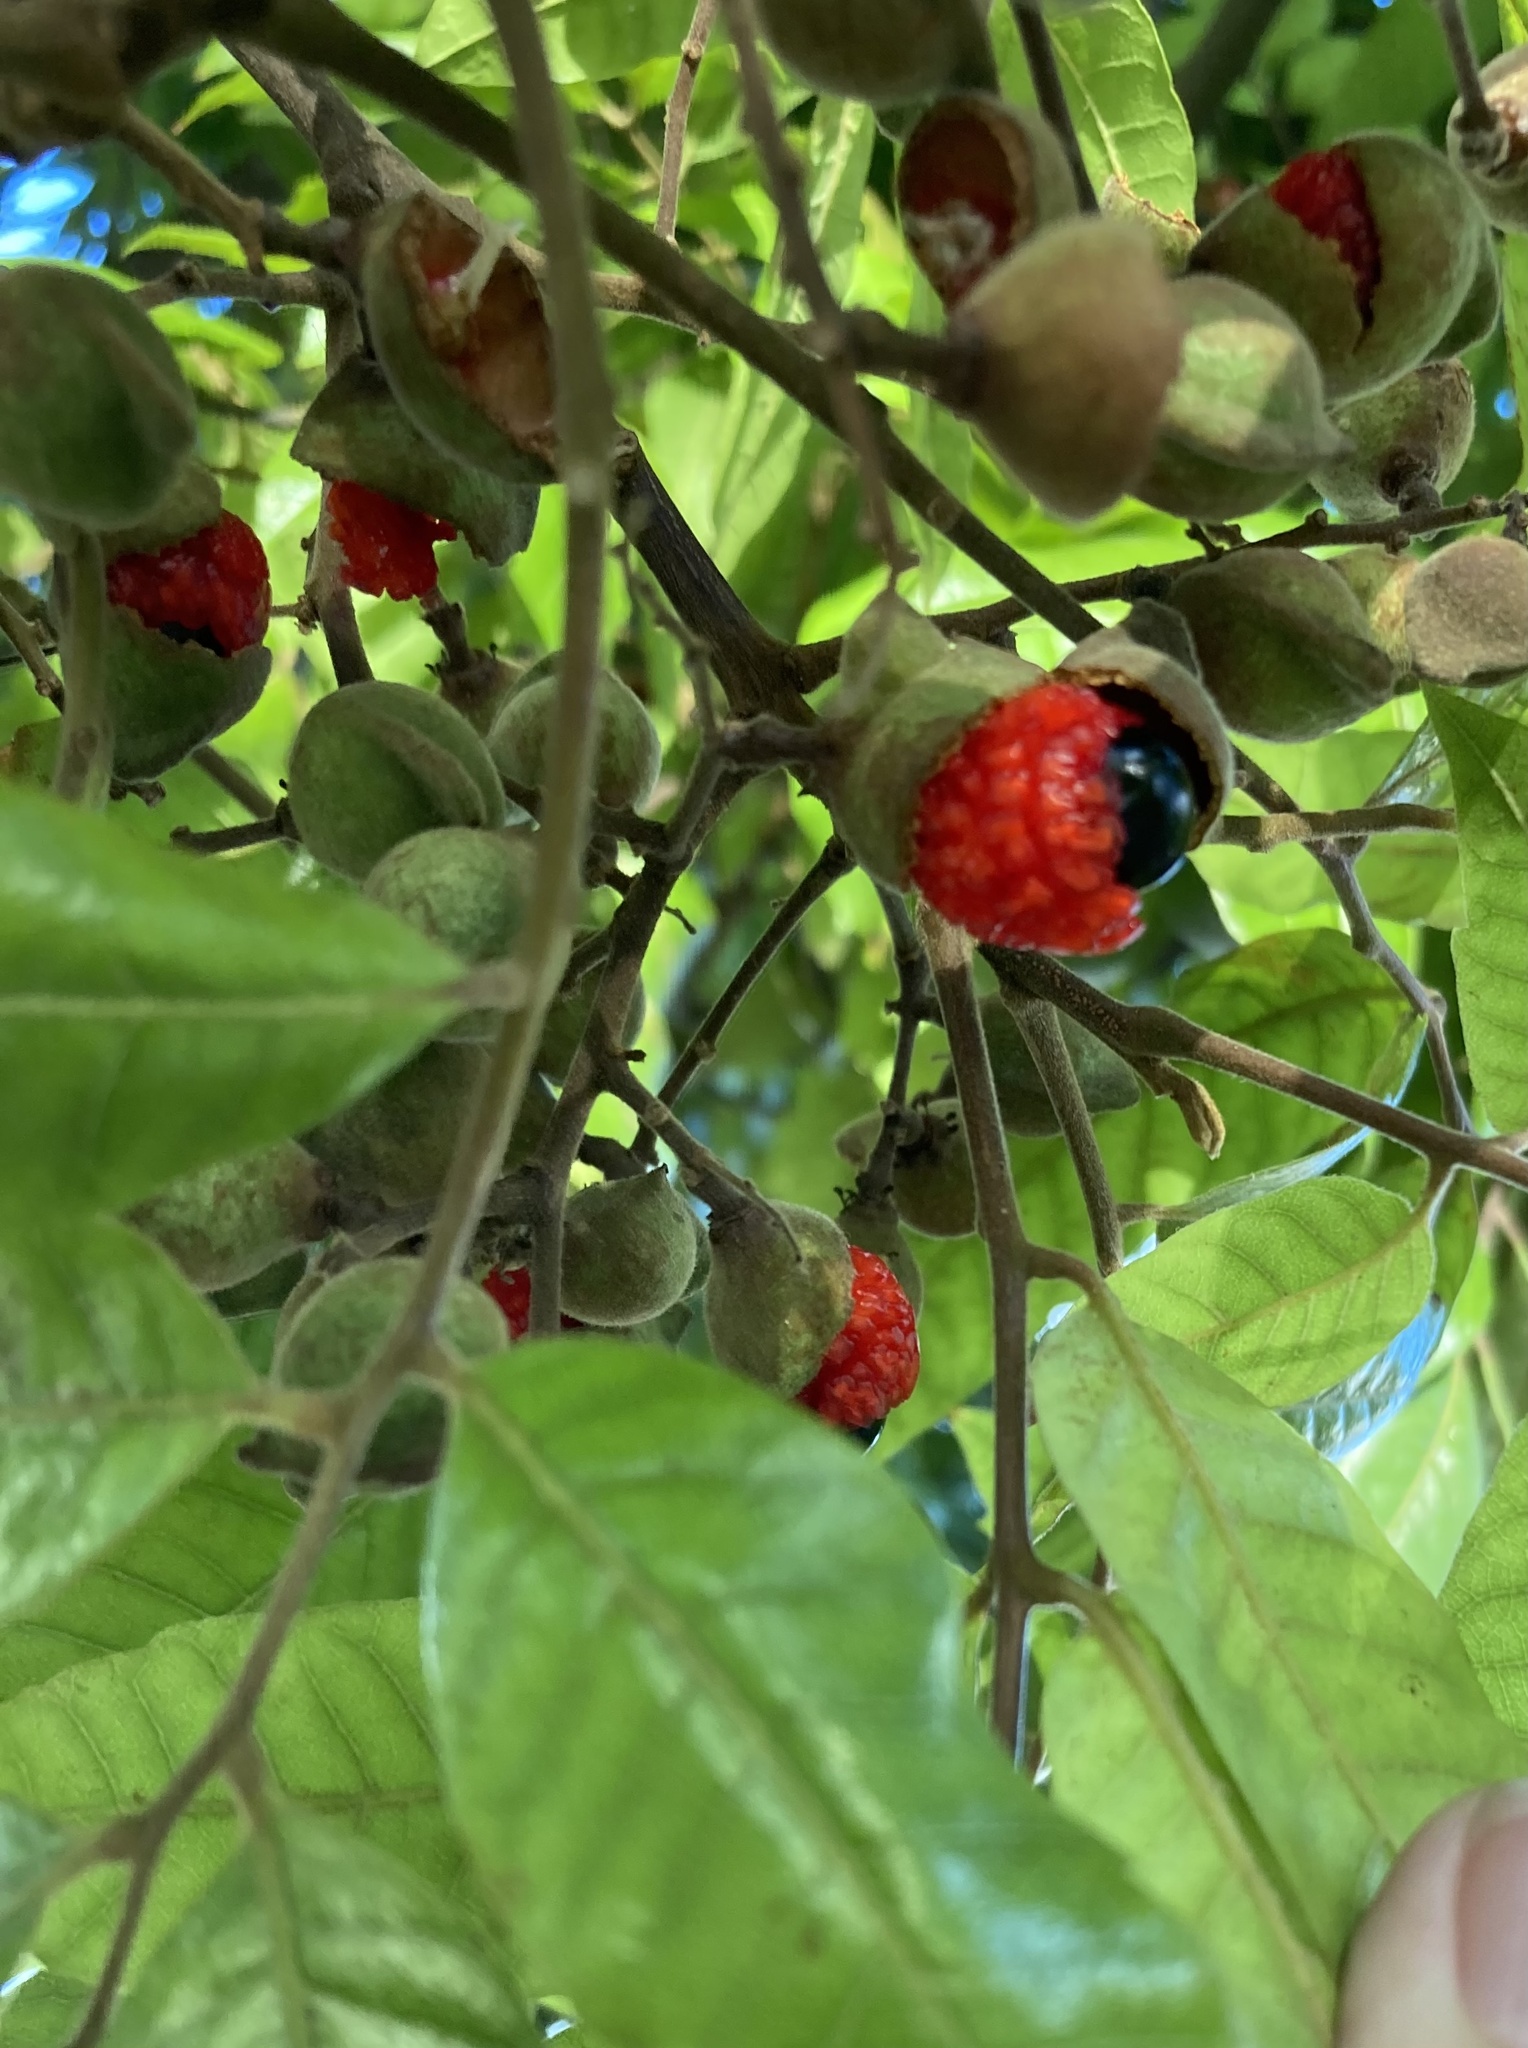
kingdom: Plantae
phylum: Tracheophyta
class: Magnoliopsida
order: Sapindales
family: Sapindaceae
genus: Alectryon
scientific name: Alectryon excelsus
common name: Three kings titoki
